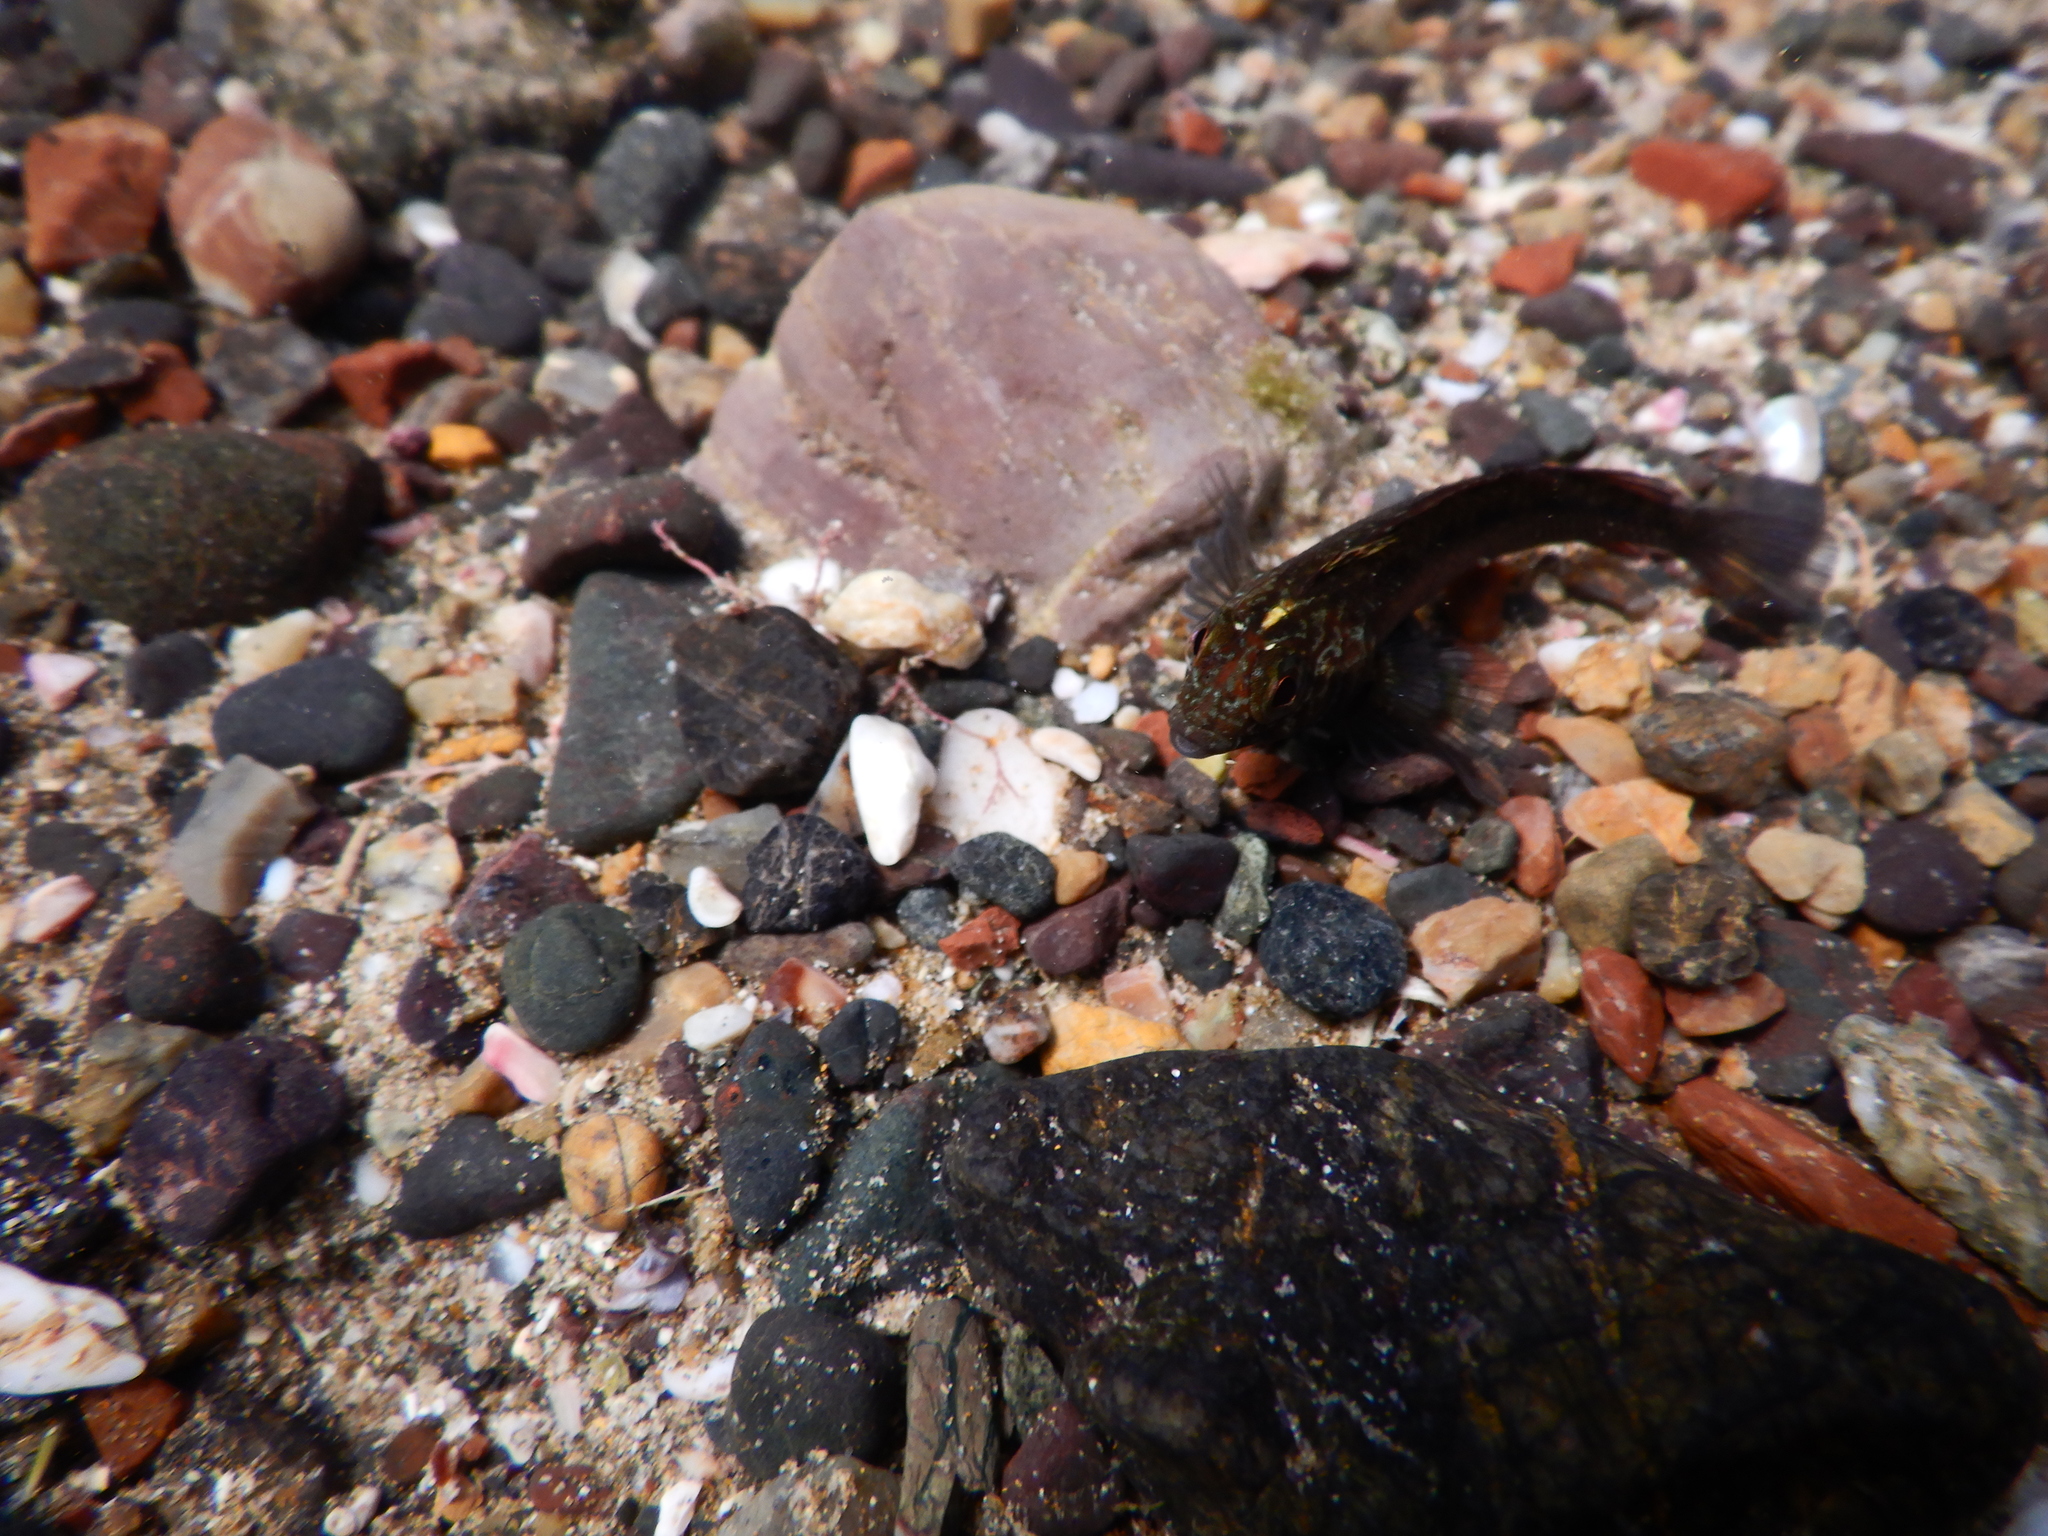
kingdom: Animalia
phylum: Chordata
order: Perciformes
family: Tripterygiidae
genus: Forsterygion
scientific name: Forsterygion lapillum
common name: Common triplefin
